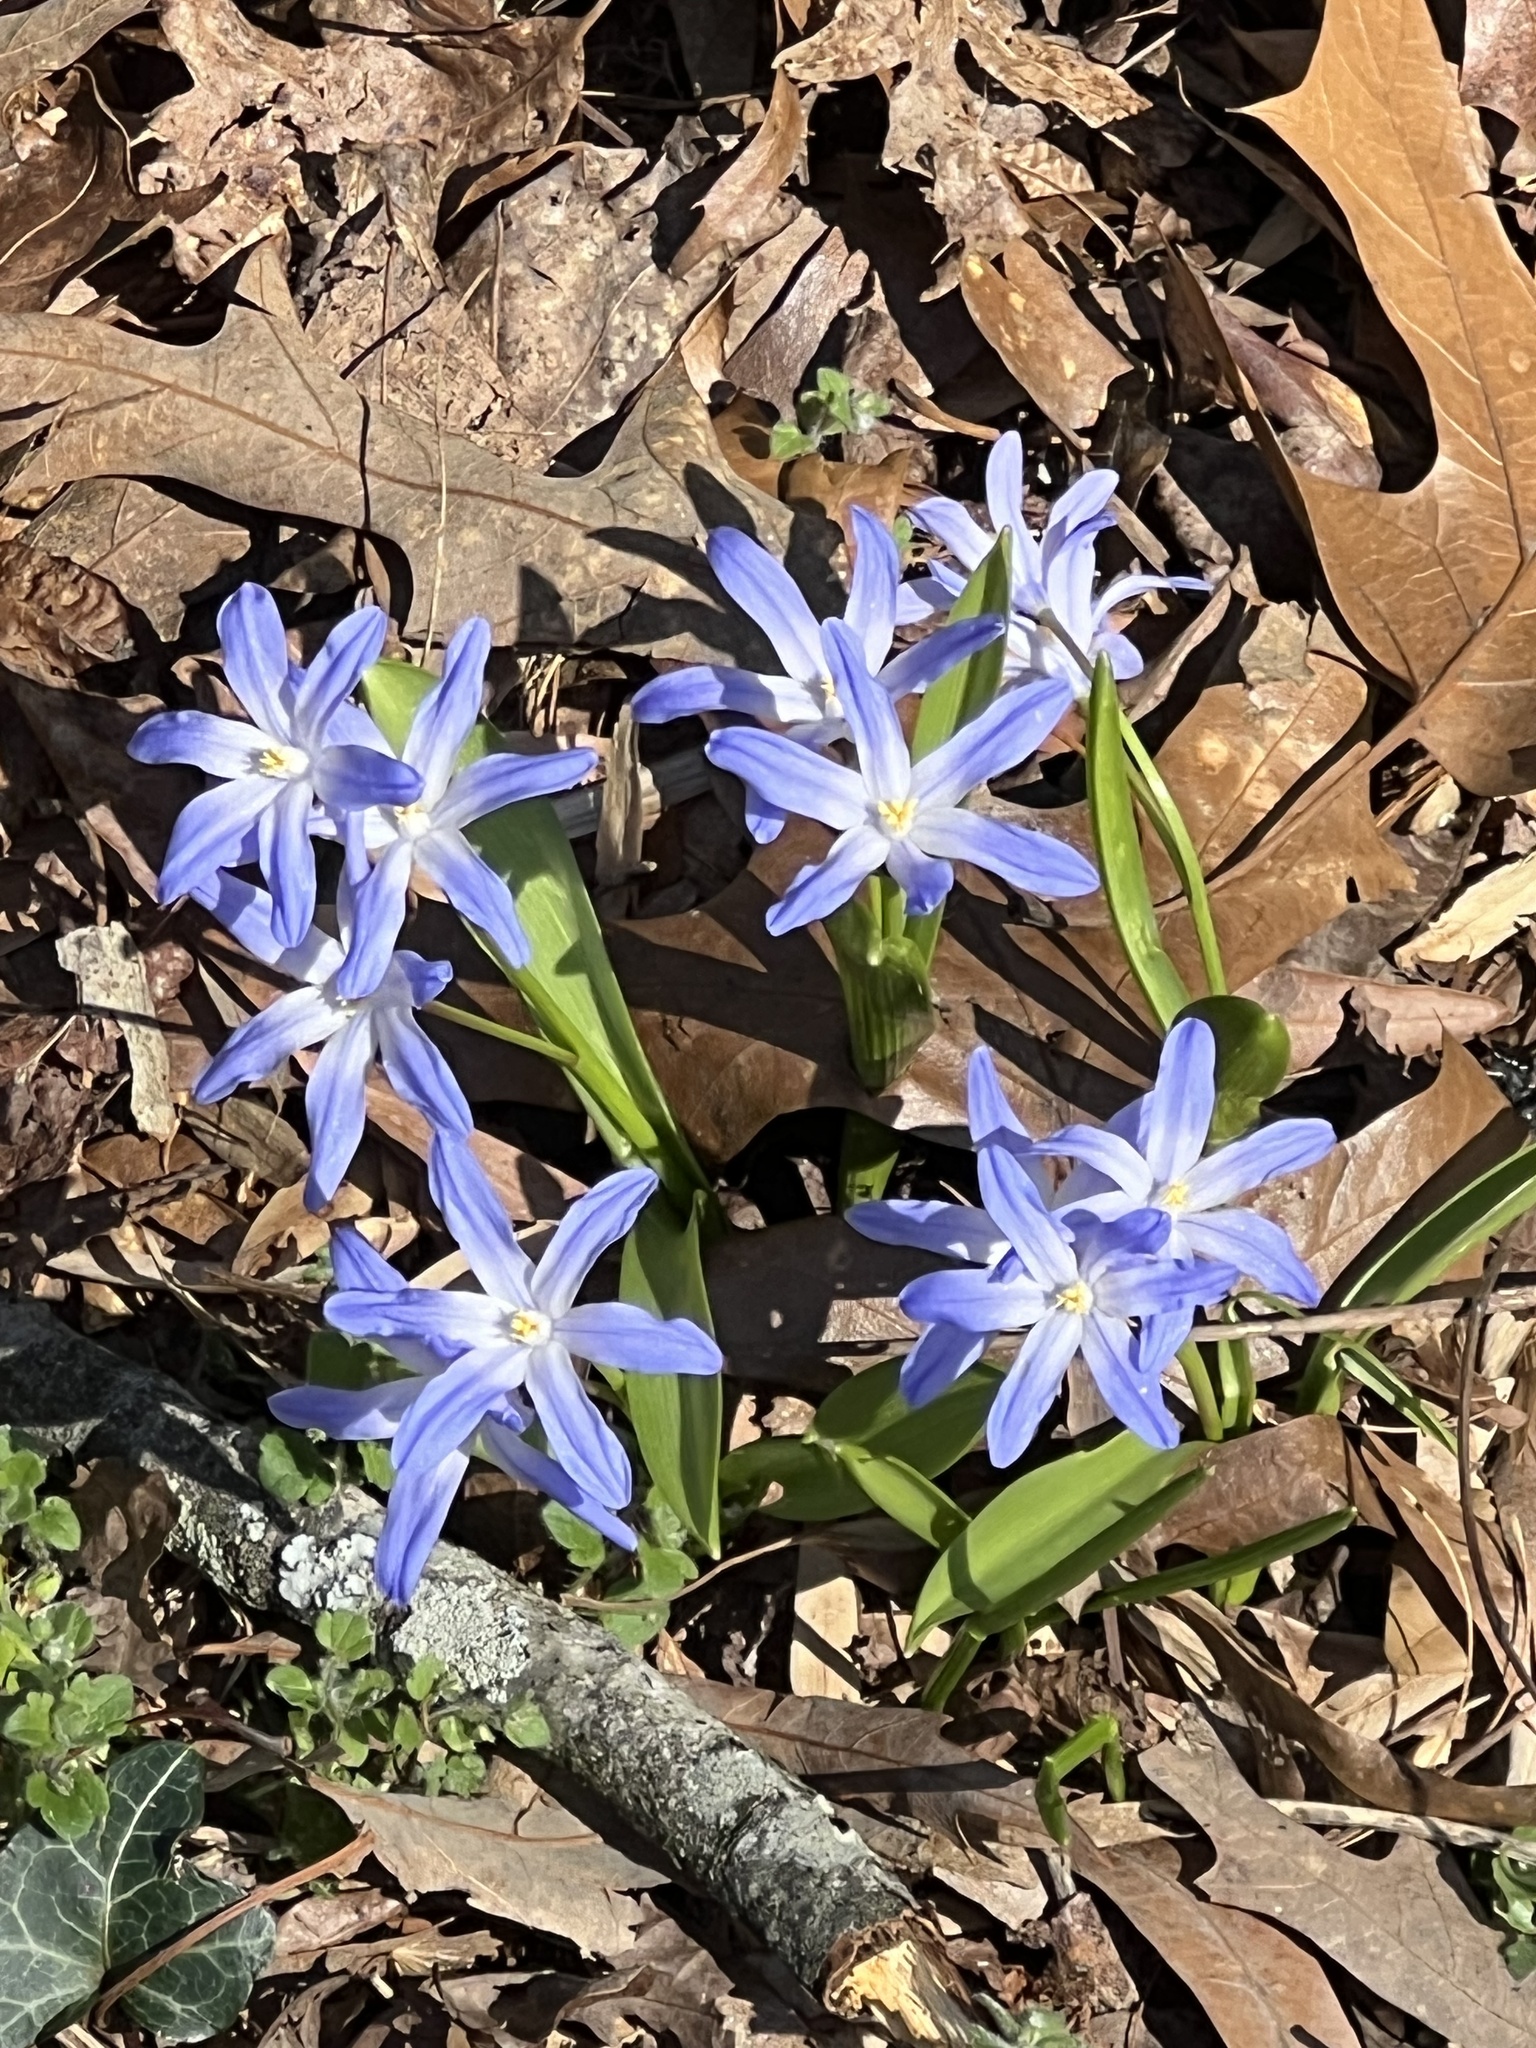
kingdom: Plantae
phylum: Tracheophyta
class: Liliopsida
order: Asparagales
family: Asparagaceae
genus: Scilla
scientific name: Scilla luciliae
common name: Boissier's glory-of-the-snow
